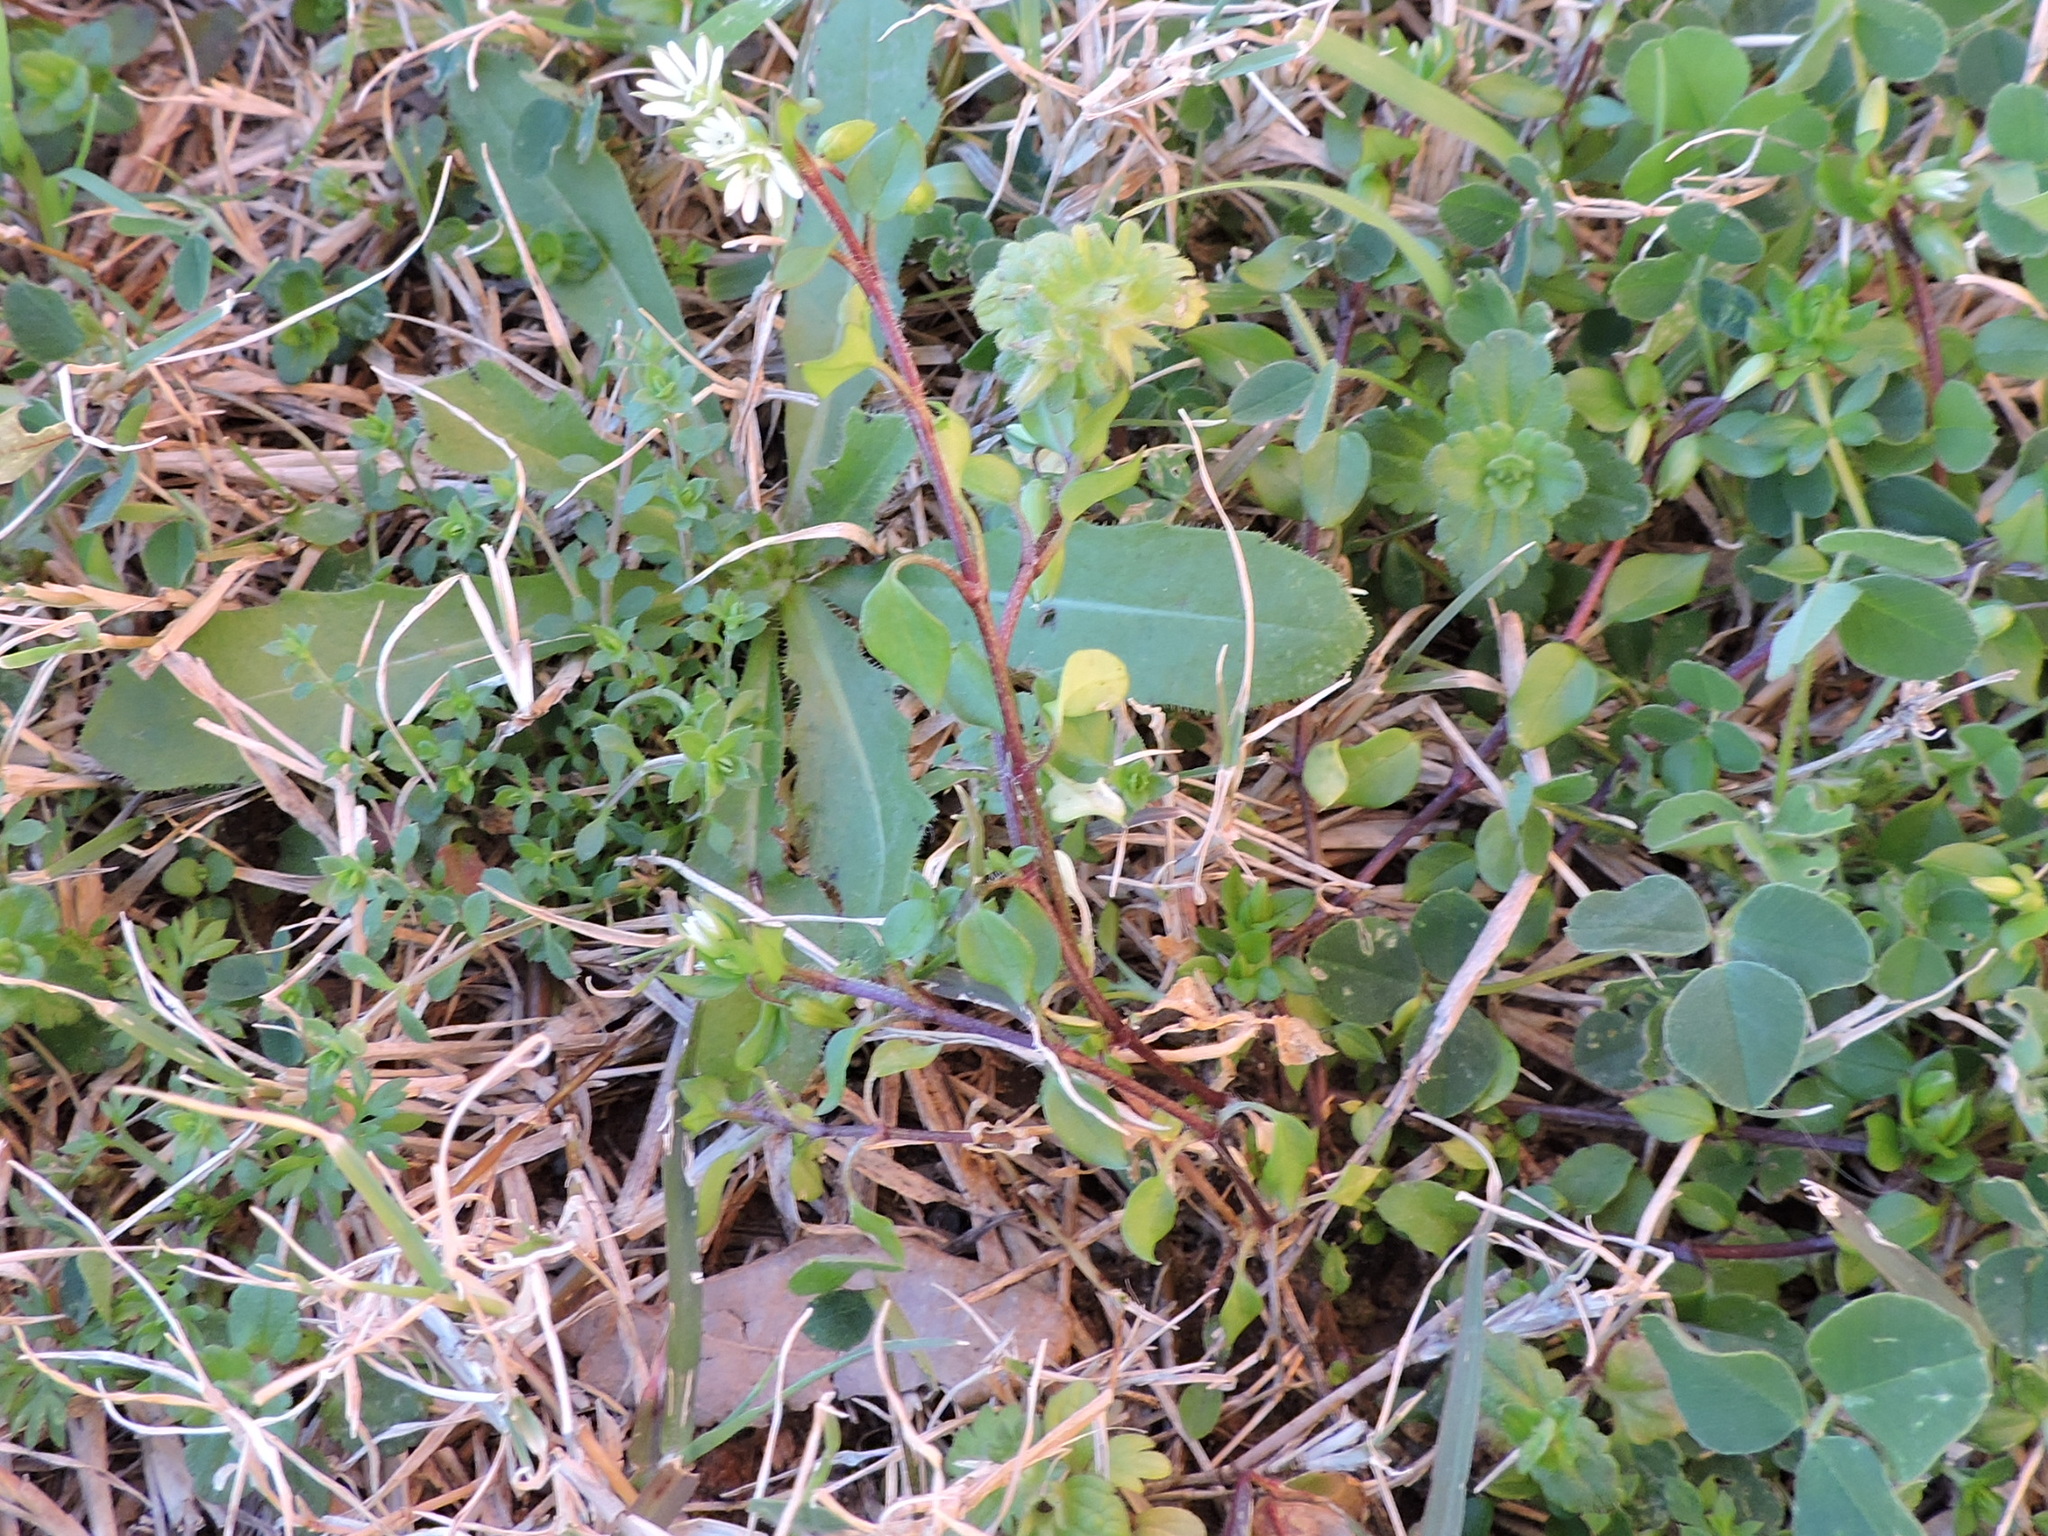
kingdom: Plantae
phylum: Tracheophyta
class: Magnoliopsida
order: Caryophyllales
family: Caryophyllaceae
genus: Stellaria
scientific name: Stellaria media
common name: Common chickweed
